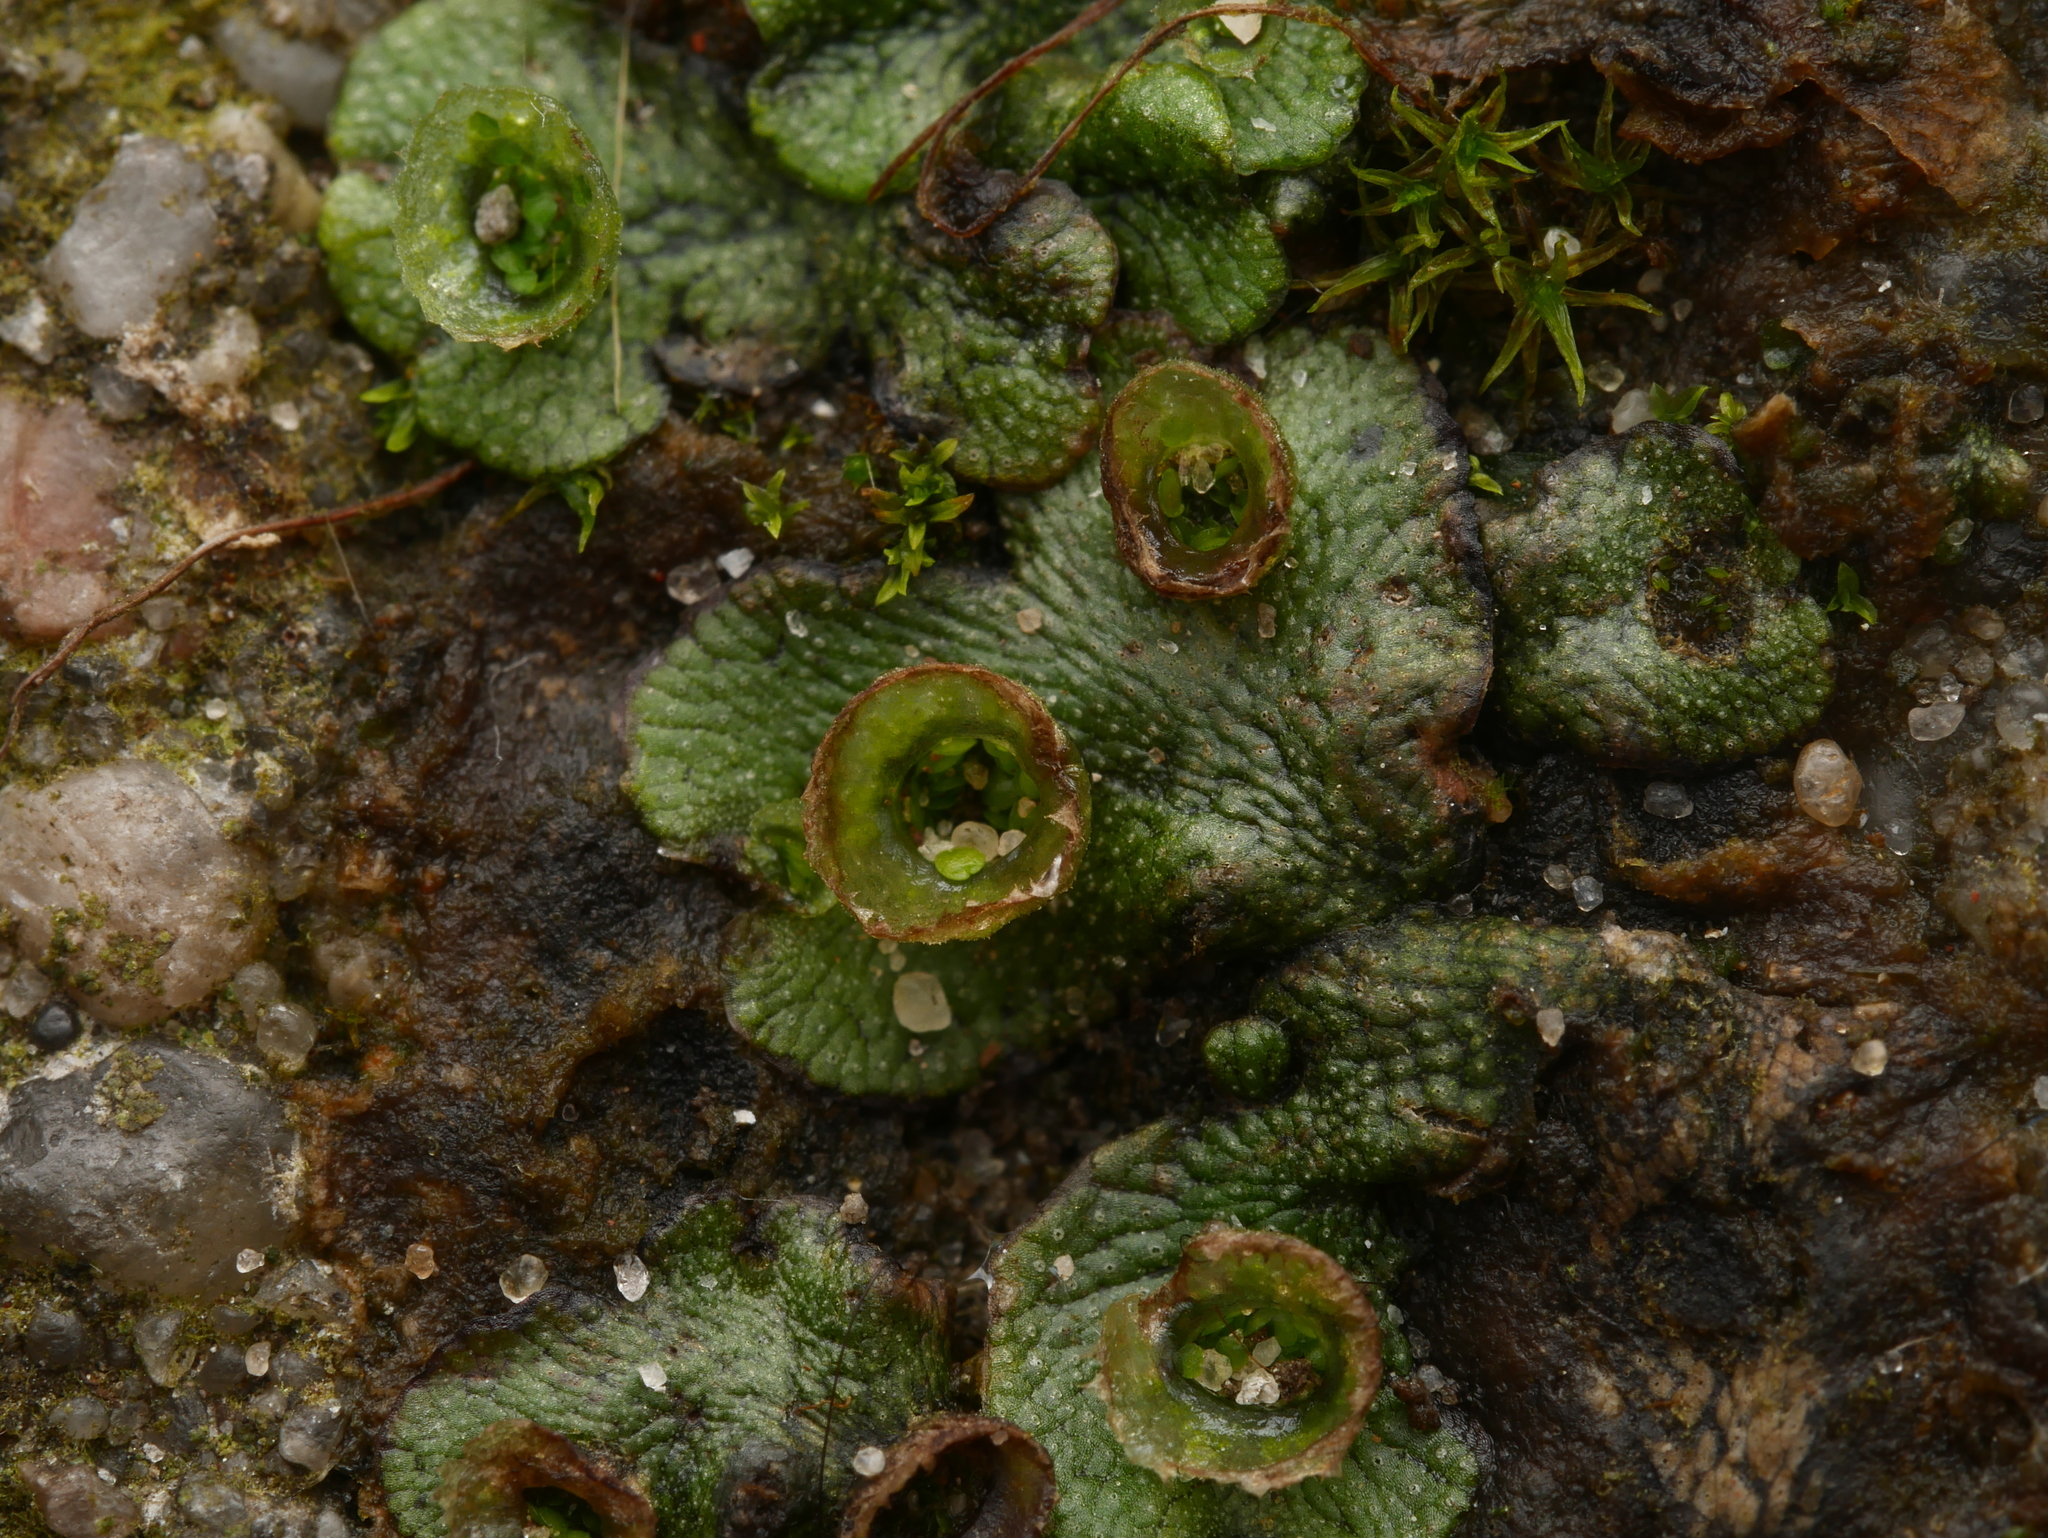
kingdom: Plantae
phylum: Marchantiophyta
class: Marchantiopsida
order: Marchantiales
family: Marchantiaceae
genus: Marchantia
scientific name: Marchantia polymorpha
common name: Common liverwort
